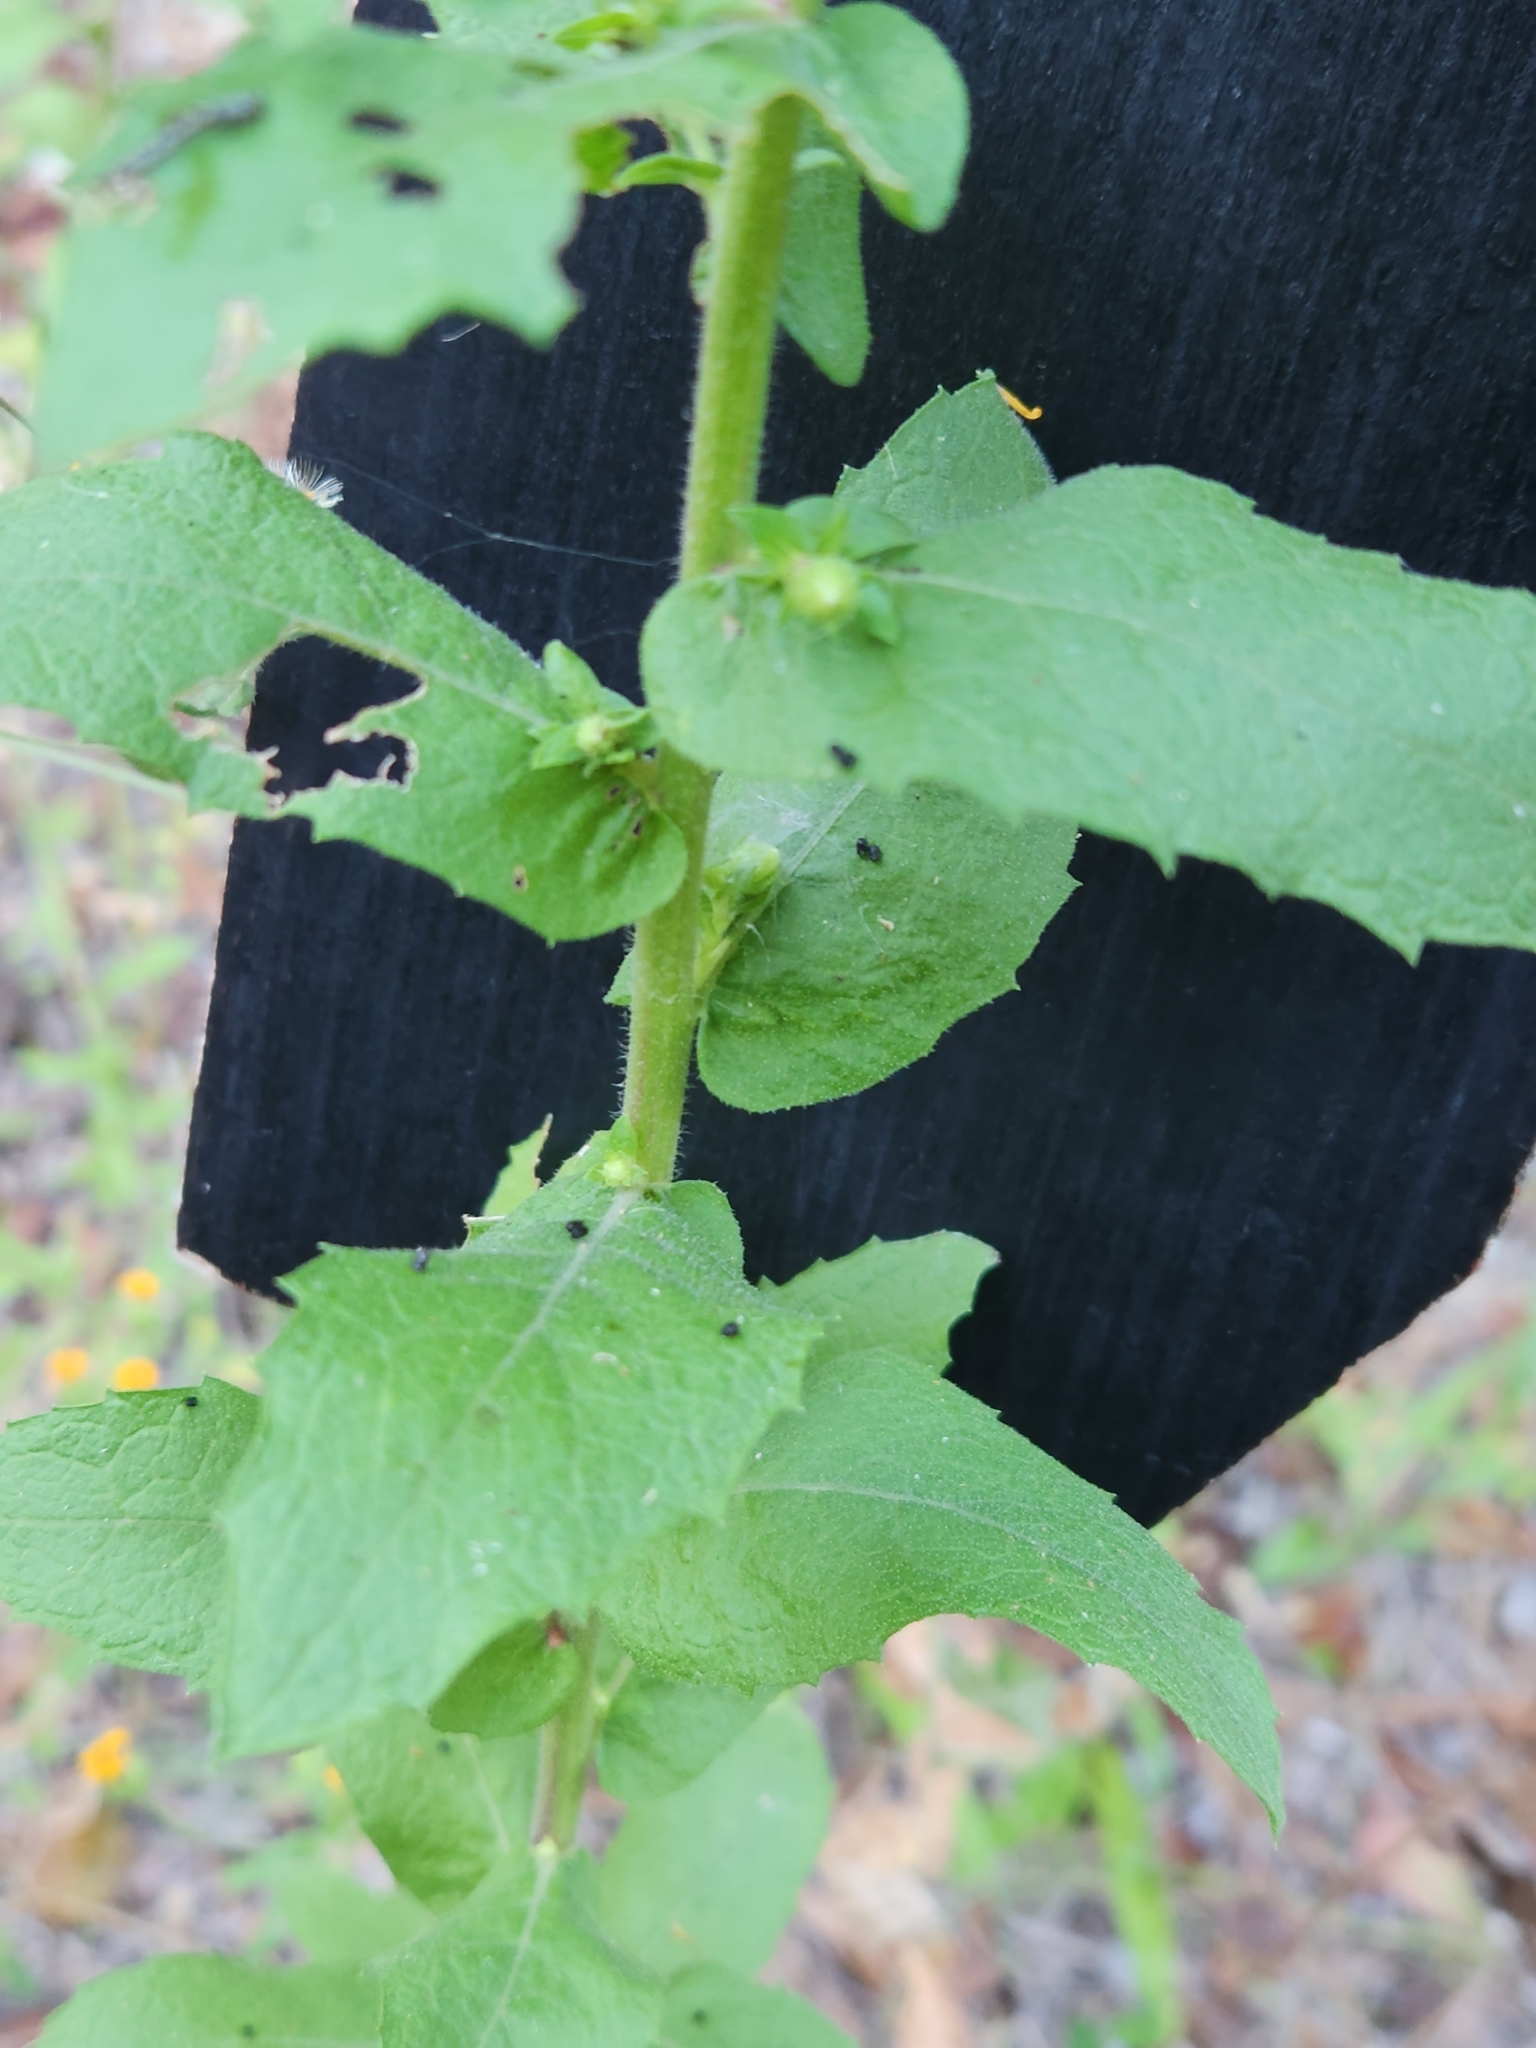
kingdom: Plantae
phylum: Tracheophyta
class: Magnoliopsida
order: Asterales
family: Asteraceae
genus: Heterotheca
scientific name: Heterotheca subaxillaris
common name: Camphorweed
